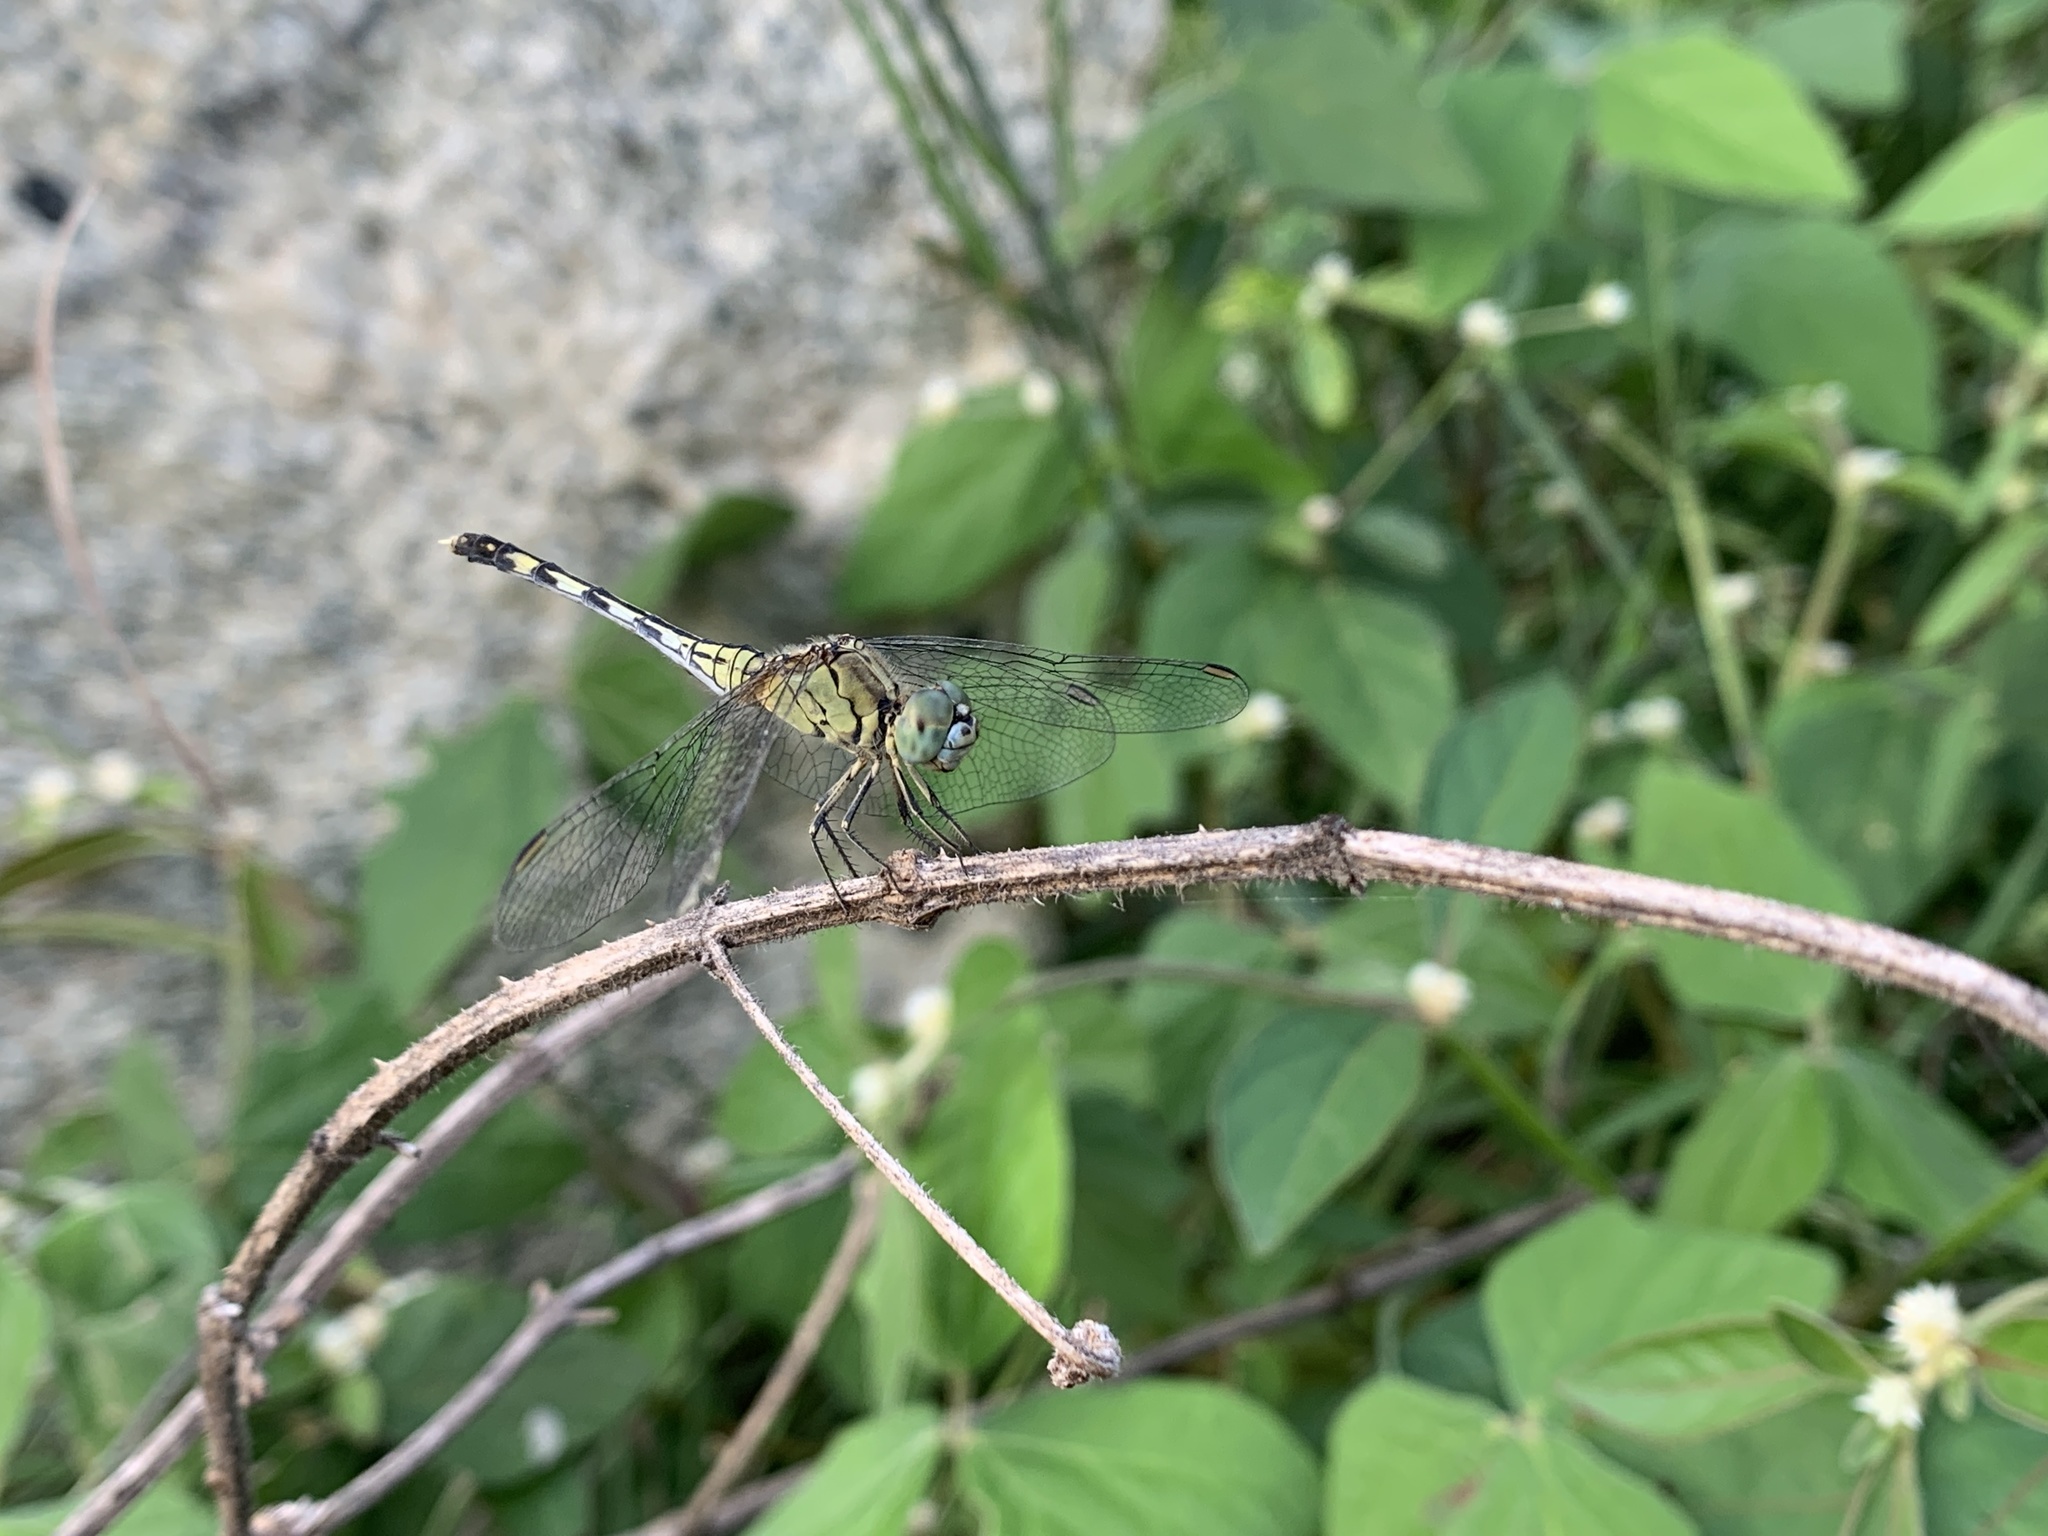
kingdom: Animalia
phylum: Arthropoda
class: Insecta
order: Odonata
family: Libellulidae
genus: Diplacodes
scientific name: Diplacodes trivialis
